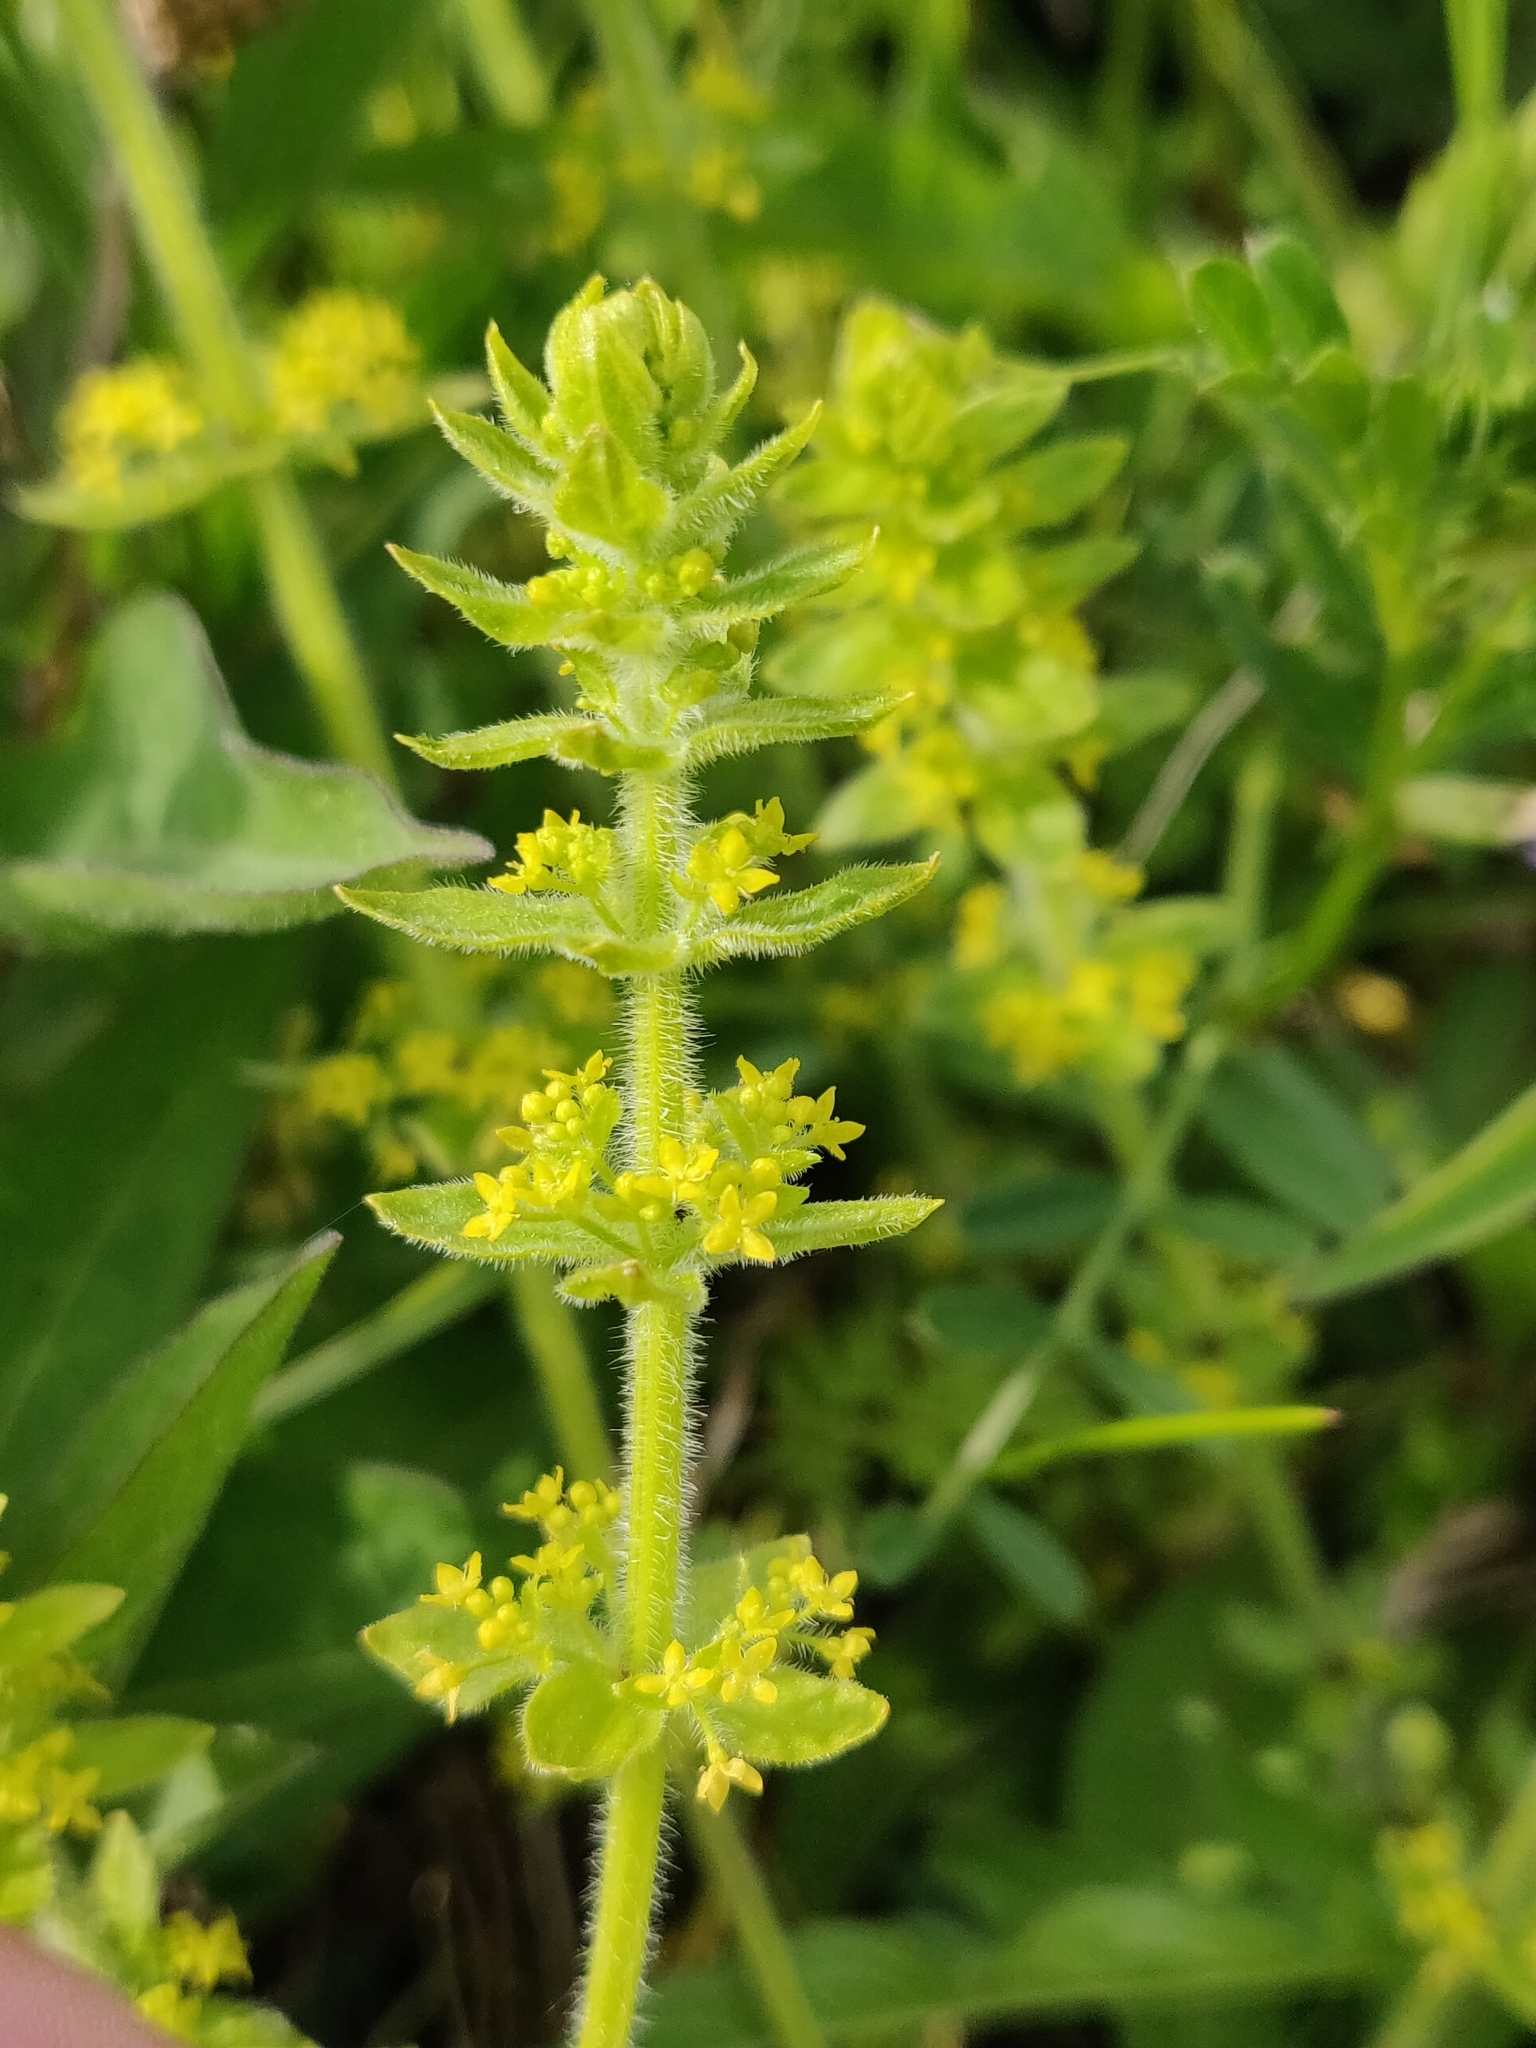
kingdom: Plantae
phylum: Tracheophyta
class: Magnoliopsida
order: Gentianales
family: Rubiaceae
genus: Cruciata
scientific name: Cruciata laevipes
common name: Crosswort
